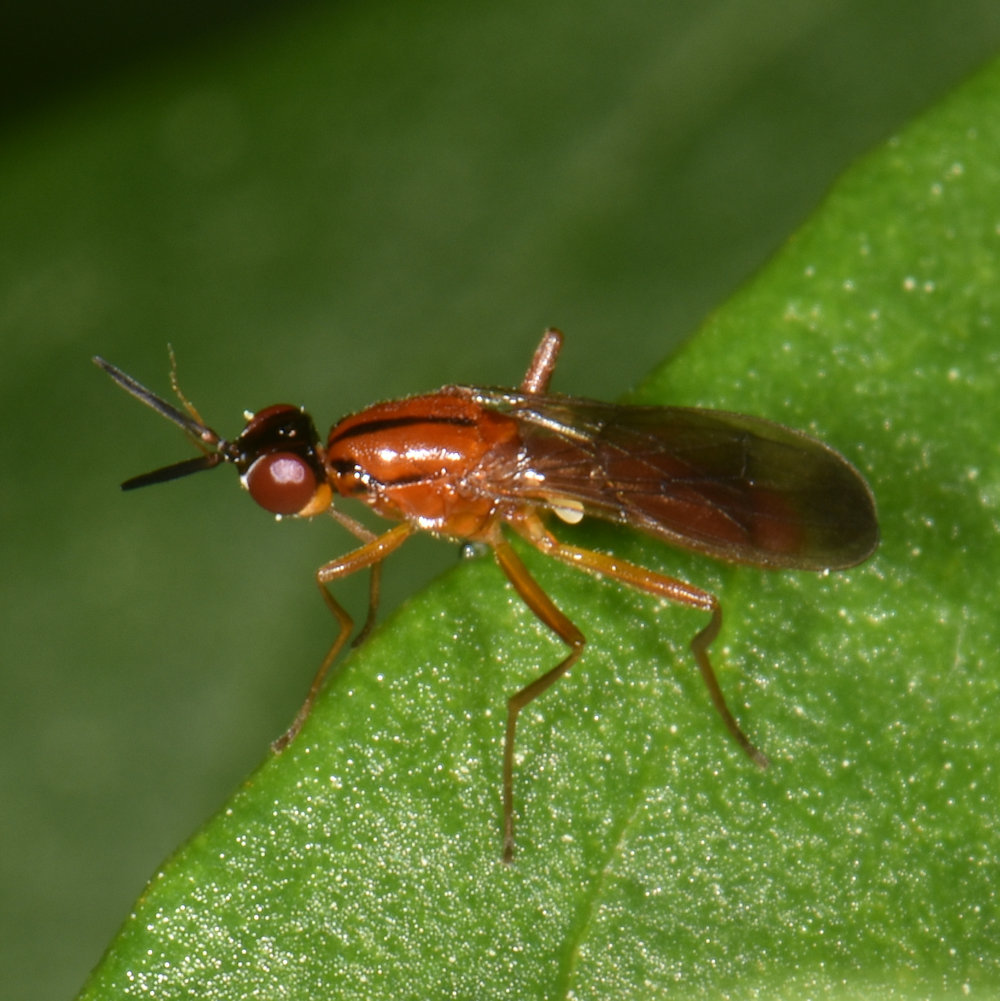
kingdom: Animalia
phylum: Arthropoda
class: Insecta
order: Diptera
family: Psilidae
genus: Loxocera
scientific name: Loxocera cylindrica
